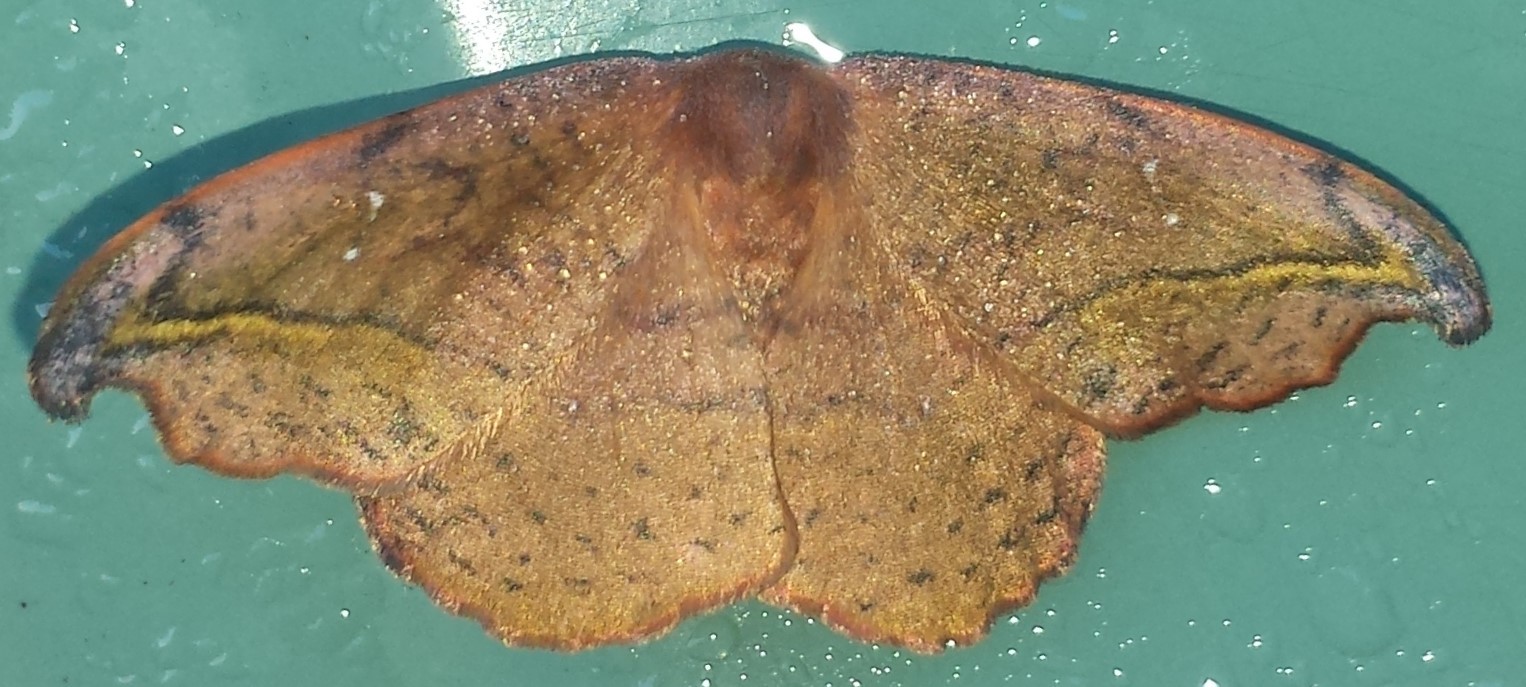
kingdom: Animalia
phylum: Arthropoda
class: Insecta
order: Lepidoptera
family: Drepanidae
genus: Oreta
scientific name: Oreta rosea
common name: Rose hooktip
